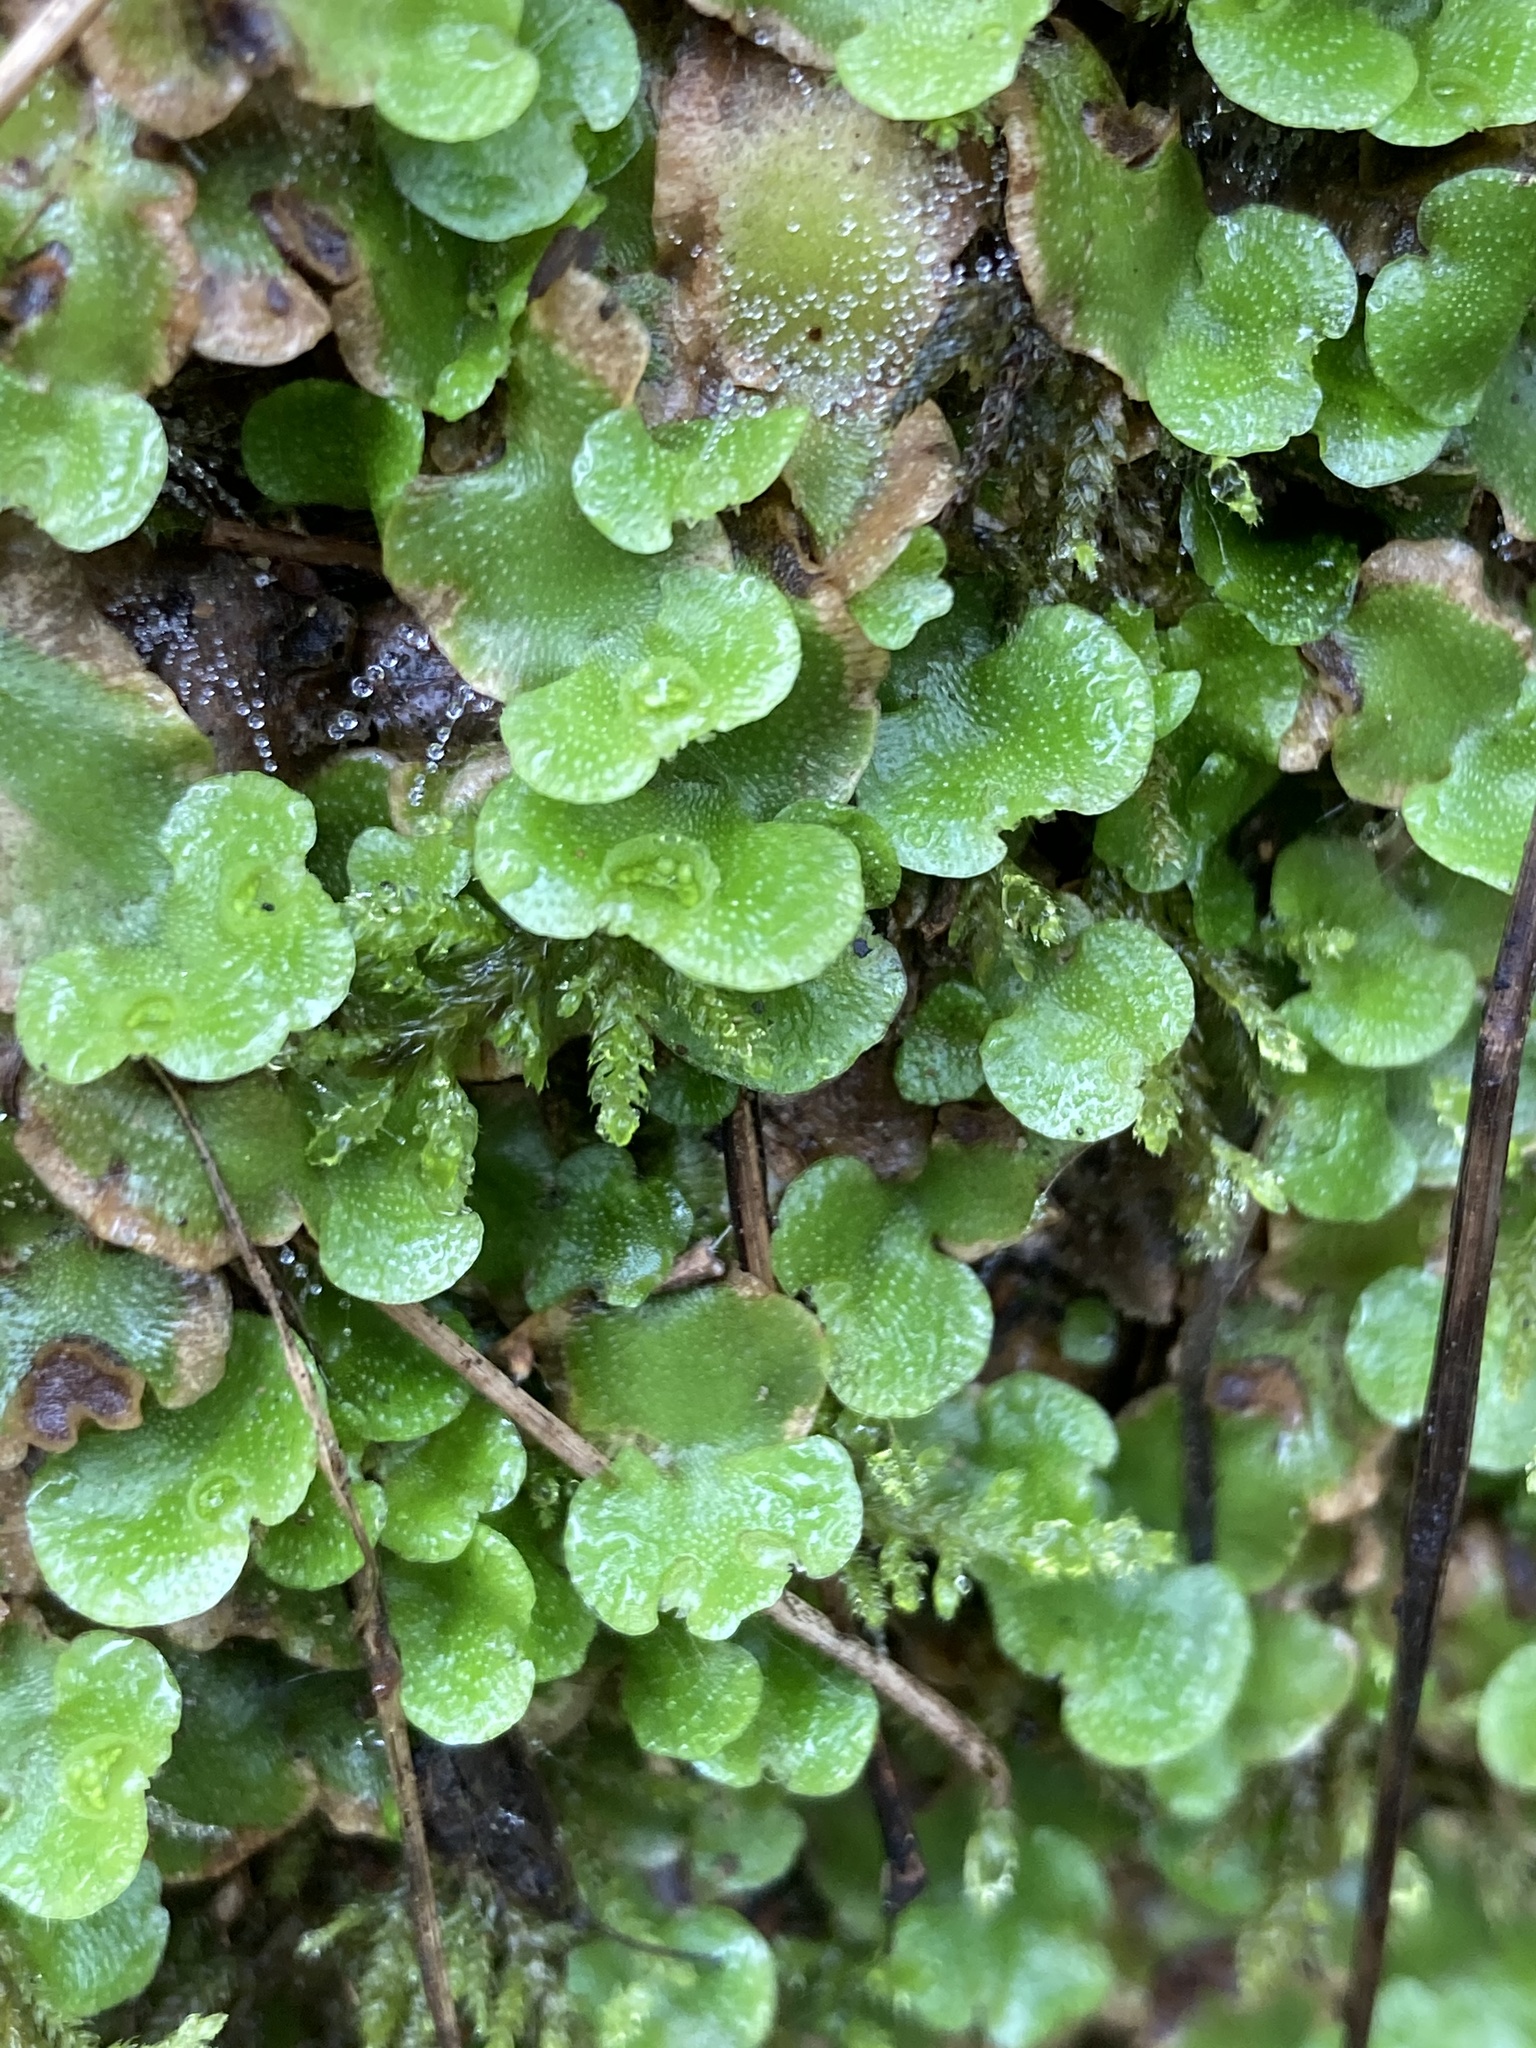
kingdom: Plantae
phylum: Marchantiophyta
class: Marchantiopsida
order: Lunulariales
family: Lunulariaceae
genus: Lunularia
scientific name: Lunularia cruciata
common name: Crescent-cup liverwort
